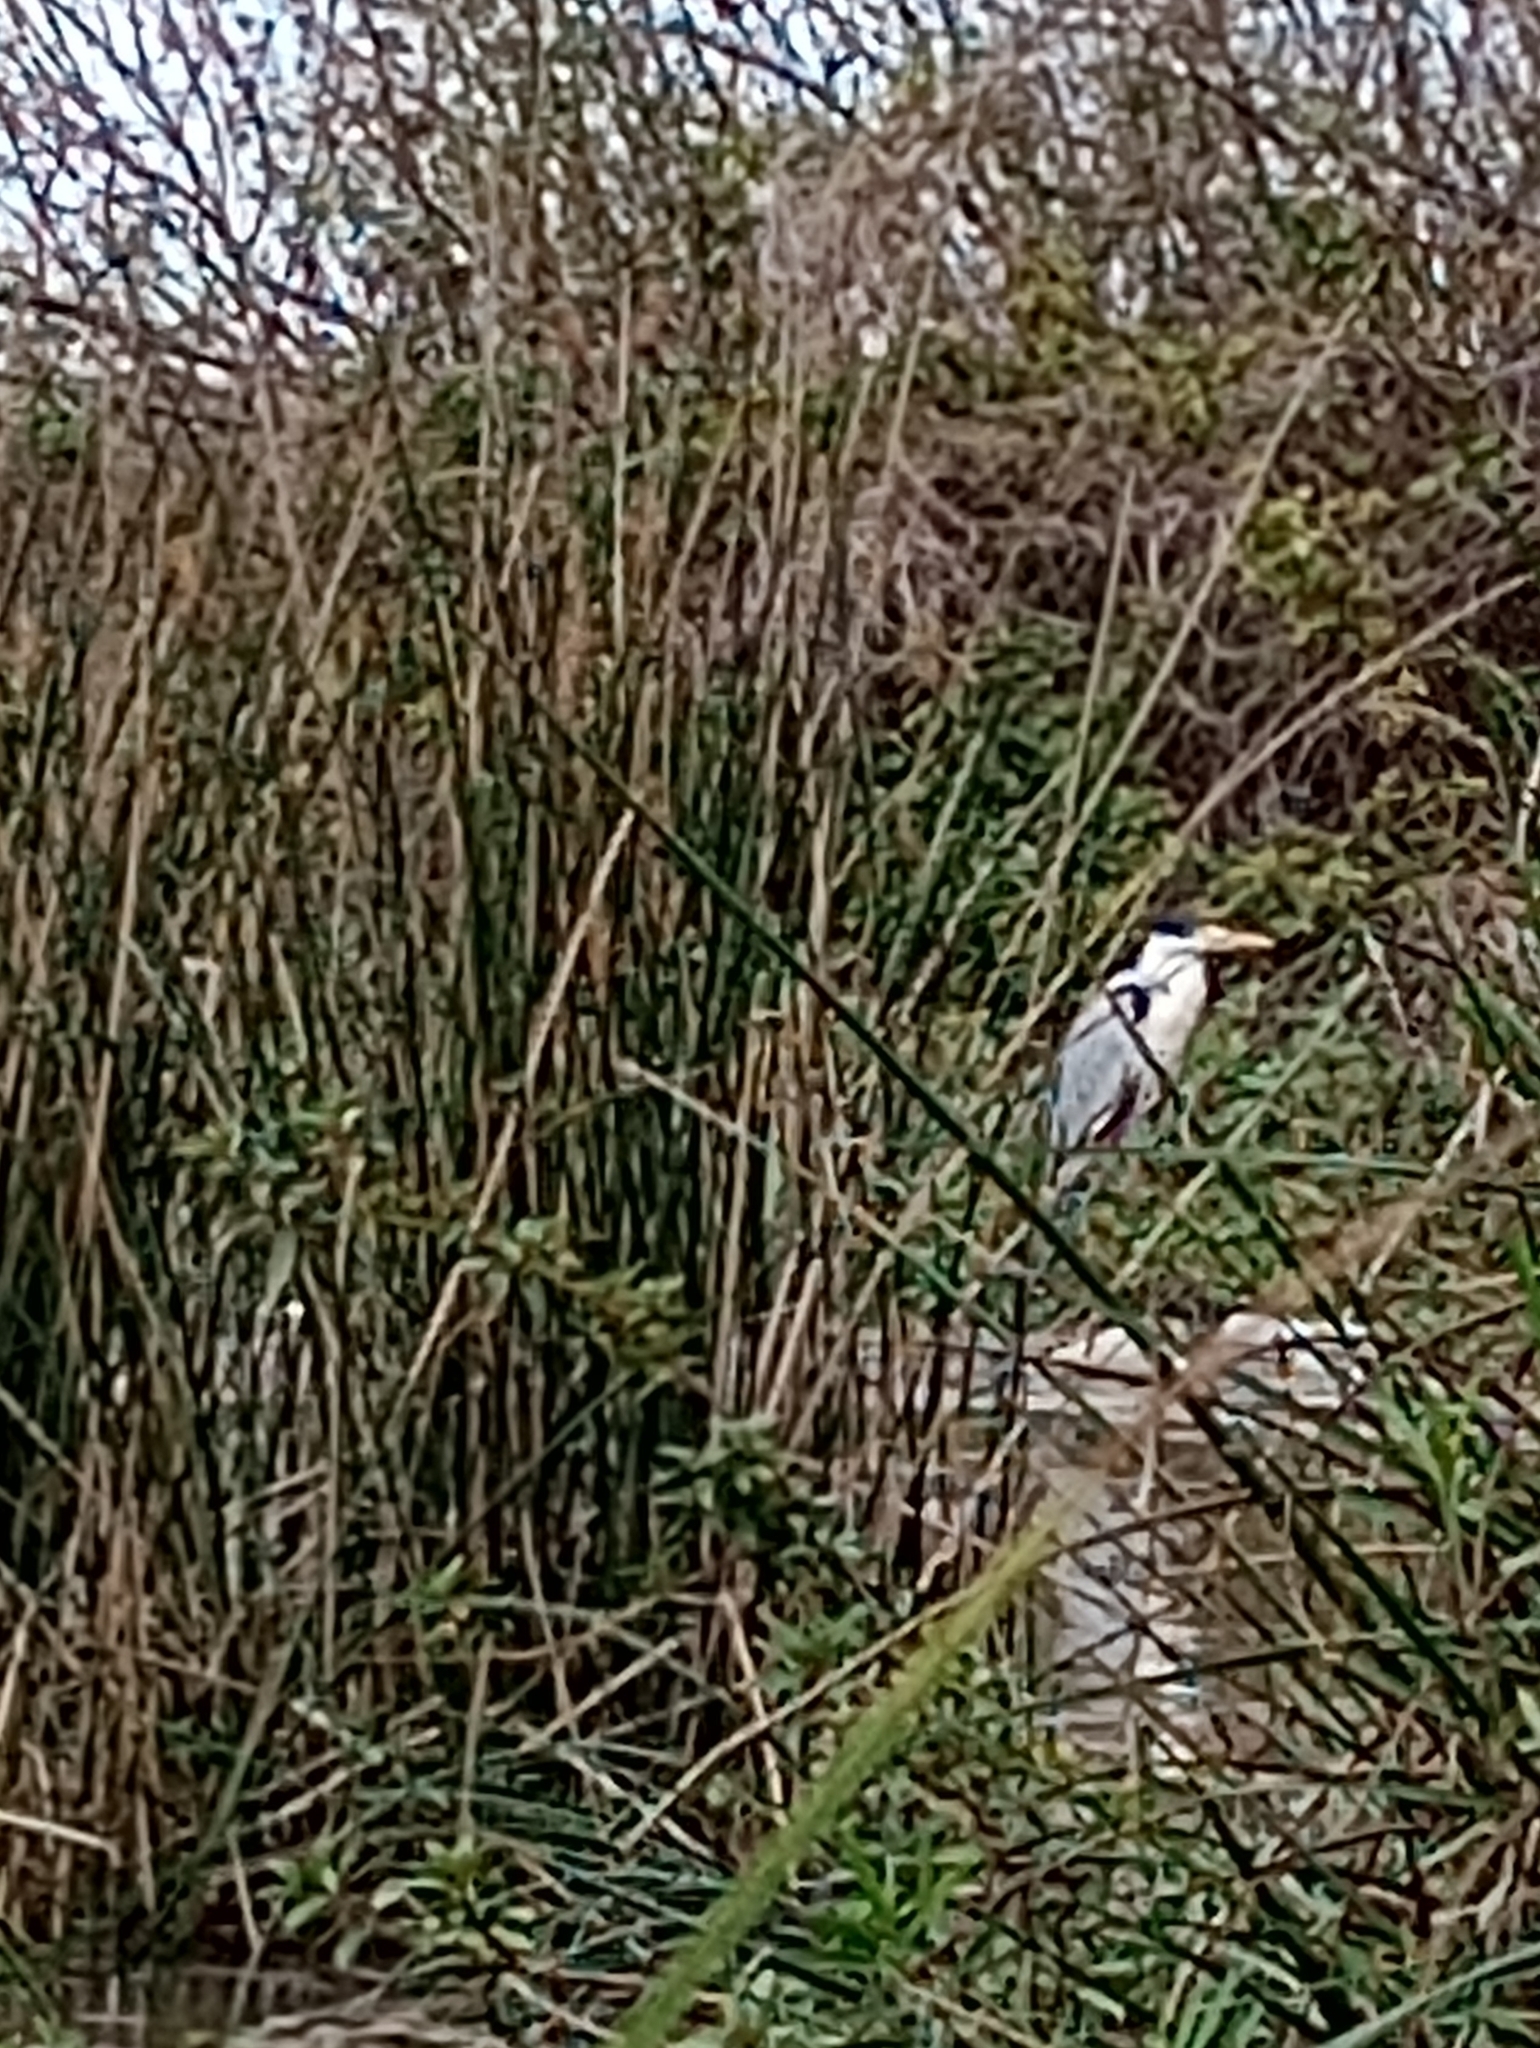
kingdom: Animalia
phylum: Chordata
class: Aves
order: Pelecaniformes
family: Ardeidae
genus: Ardea
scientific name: Ardea cocoi
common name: Cocoi heron
